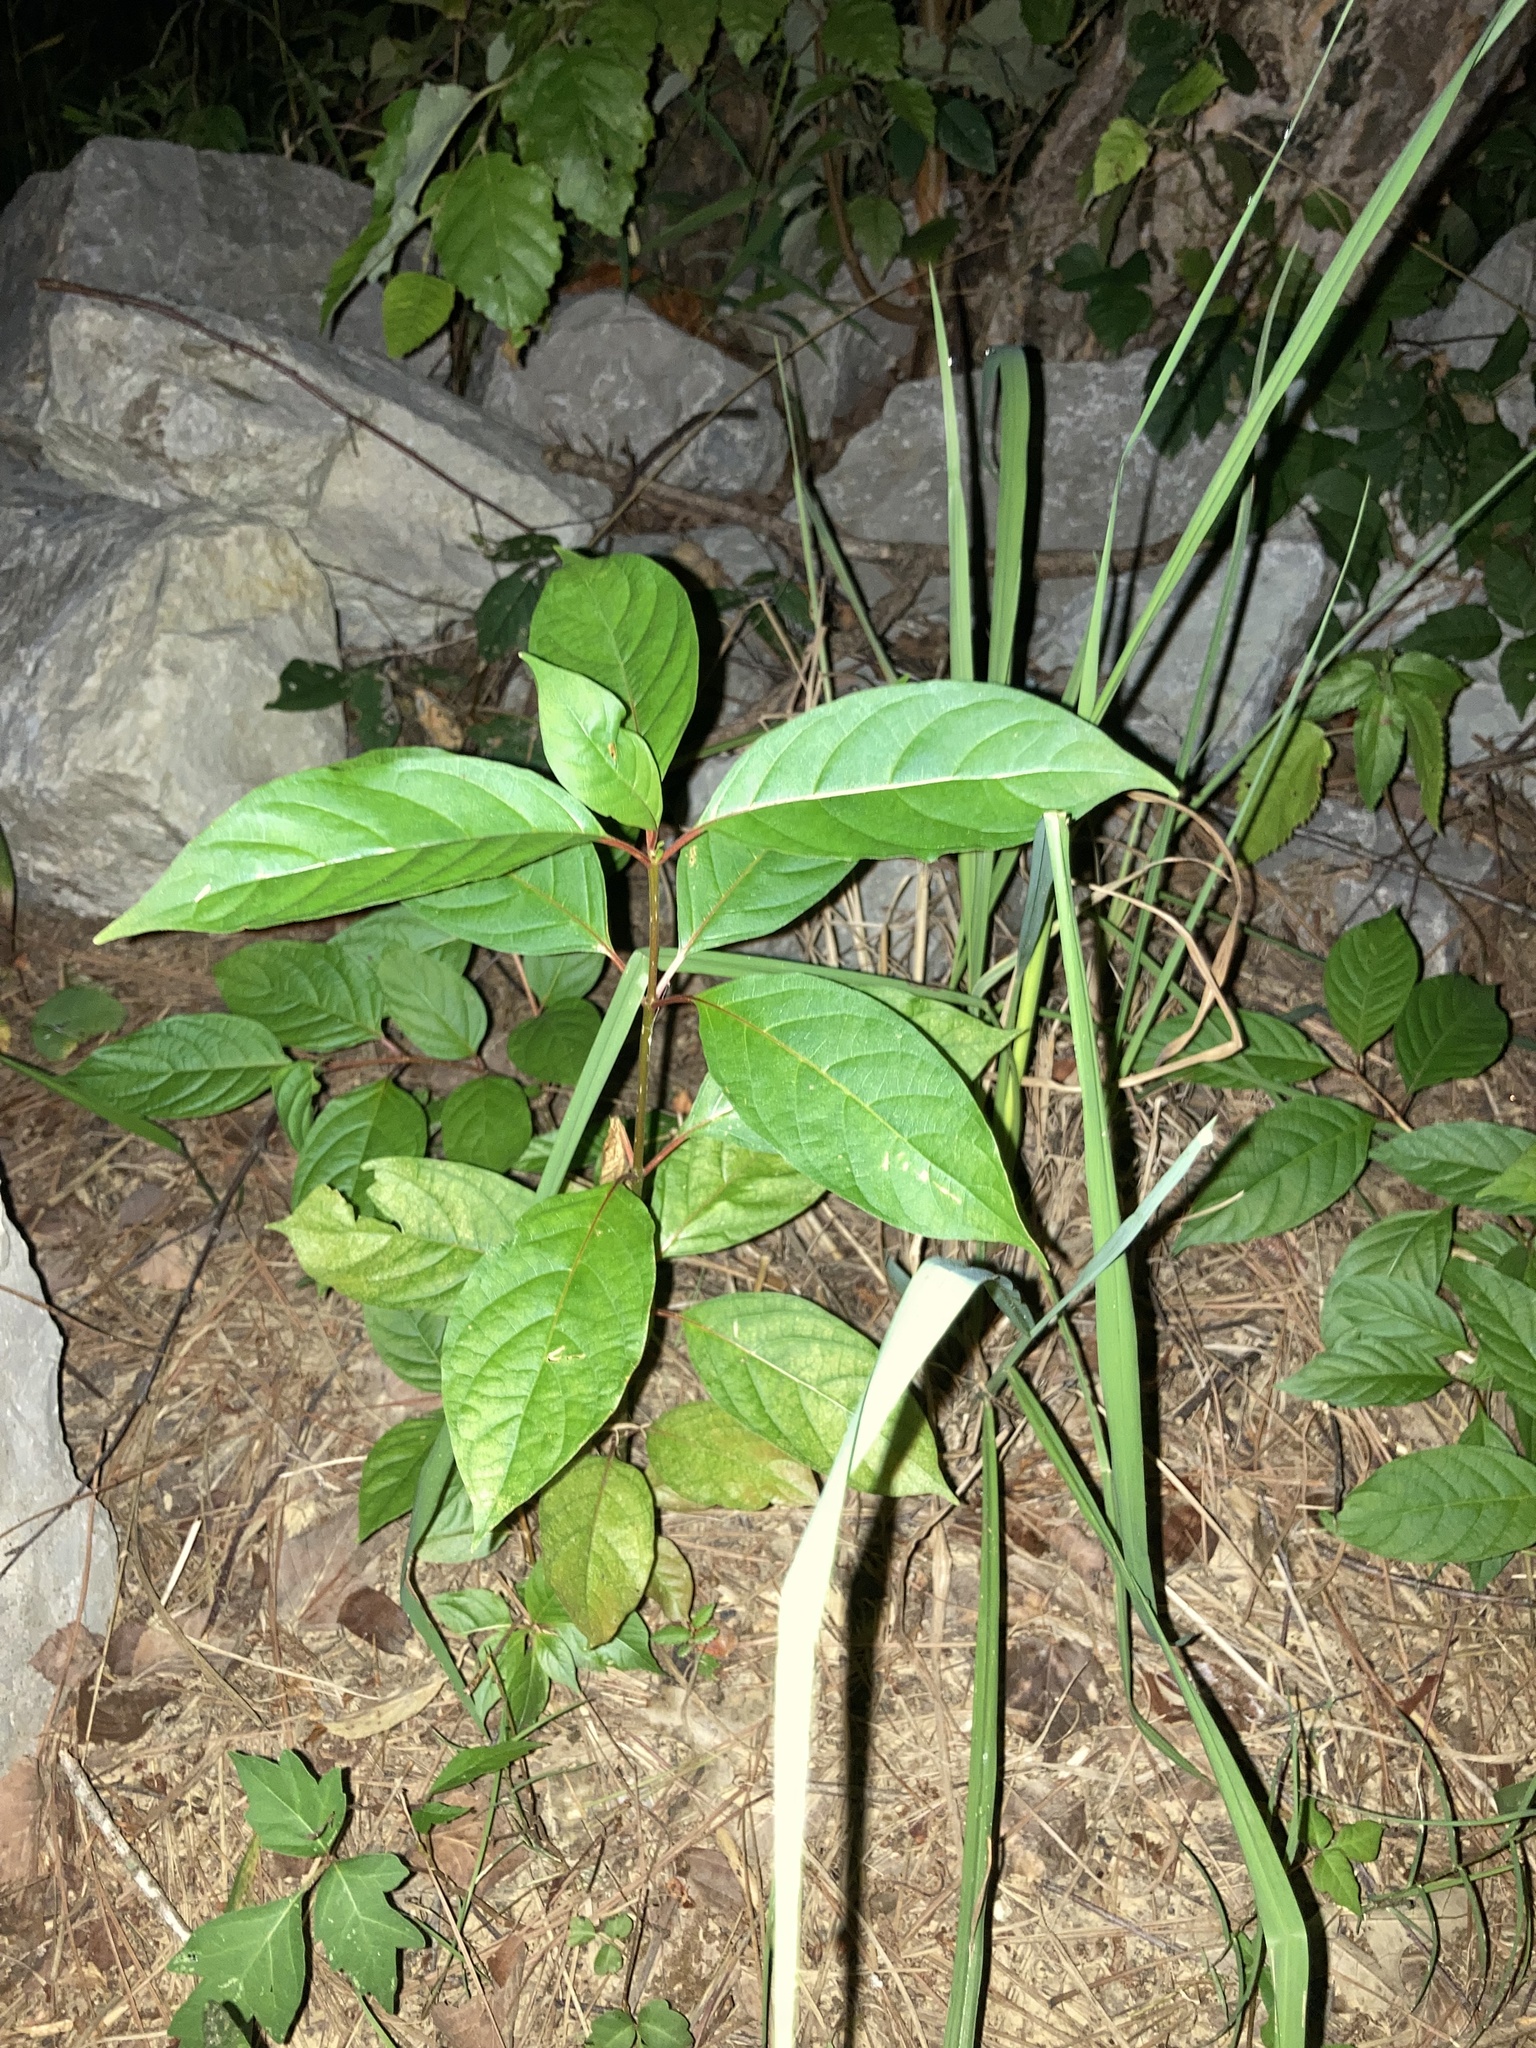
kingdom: Plantae
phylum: Tracheophyta
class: Magnoliopsida
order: Gentianales
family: Rubiaceae
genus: Cephalanthus
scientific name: Cephalanthus occidentalis
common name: Button-willow
